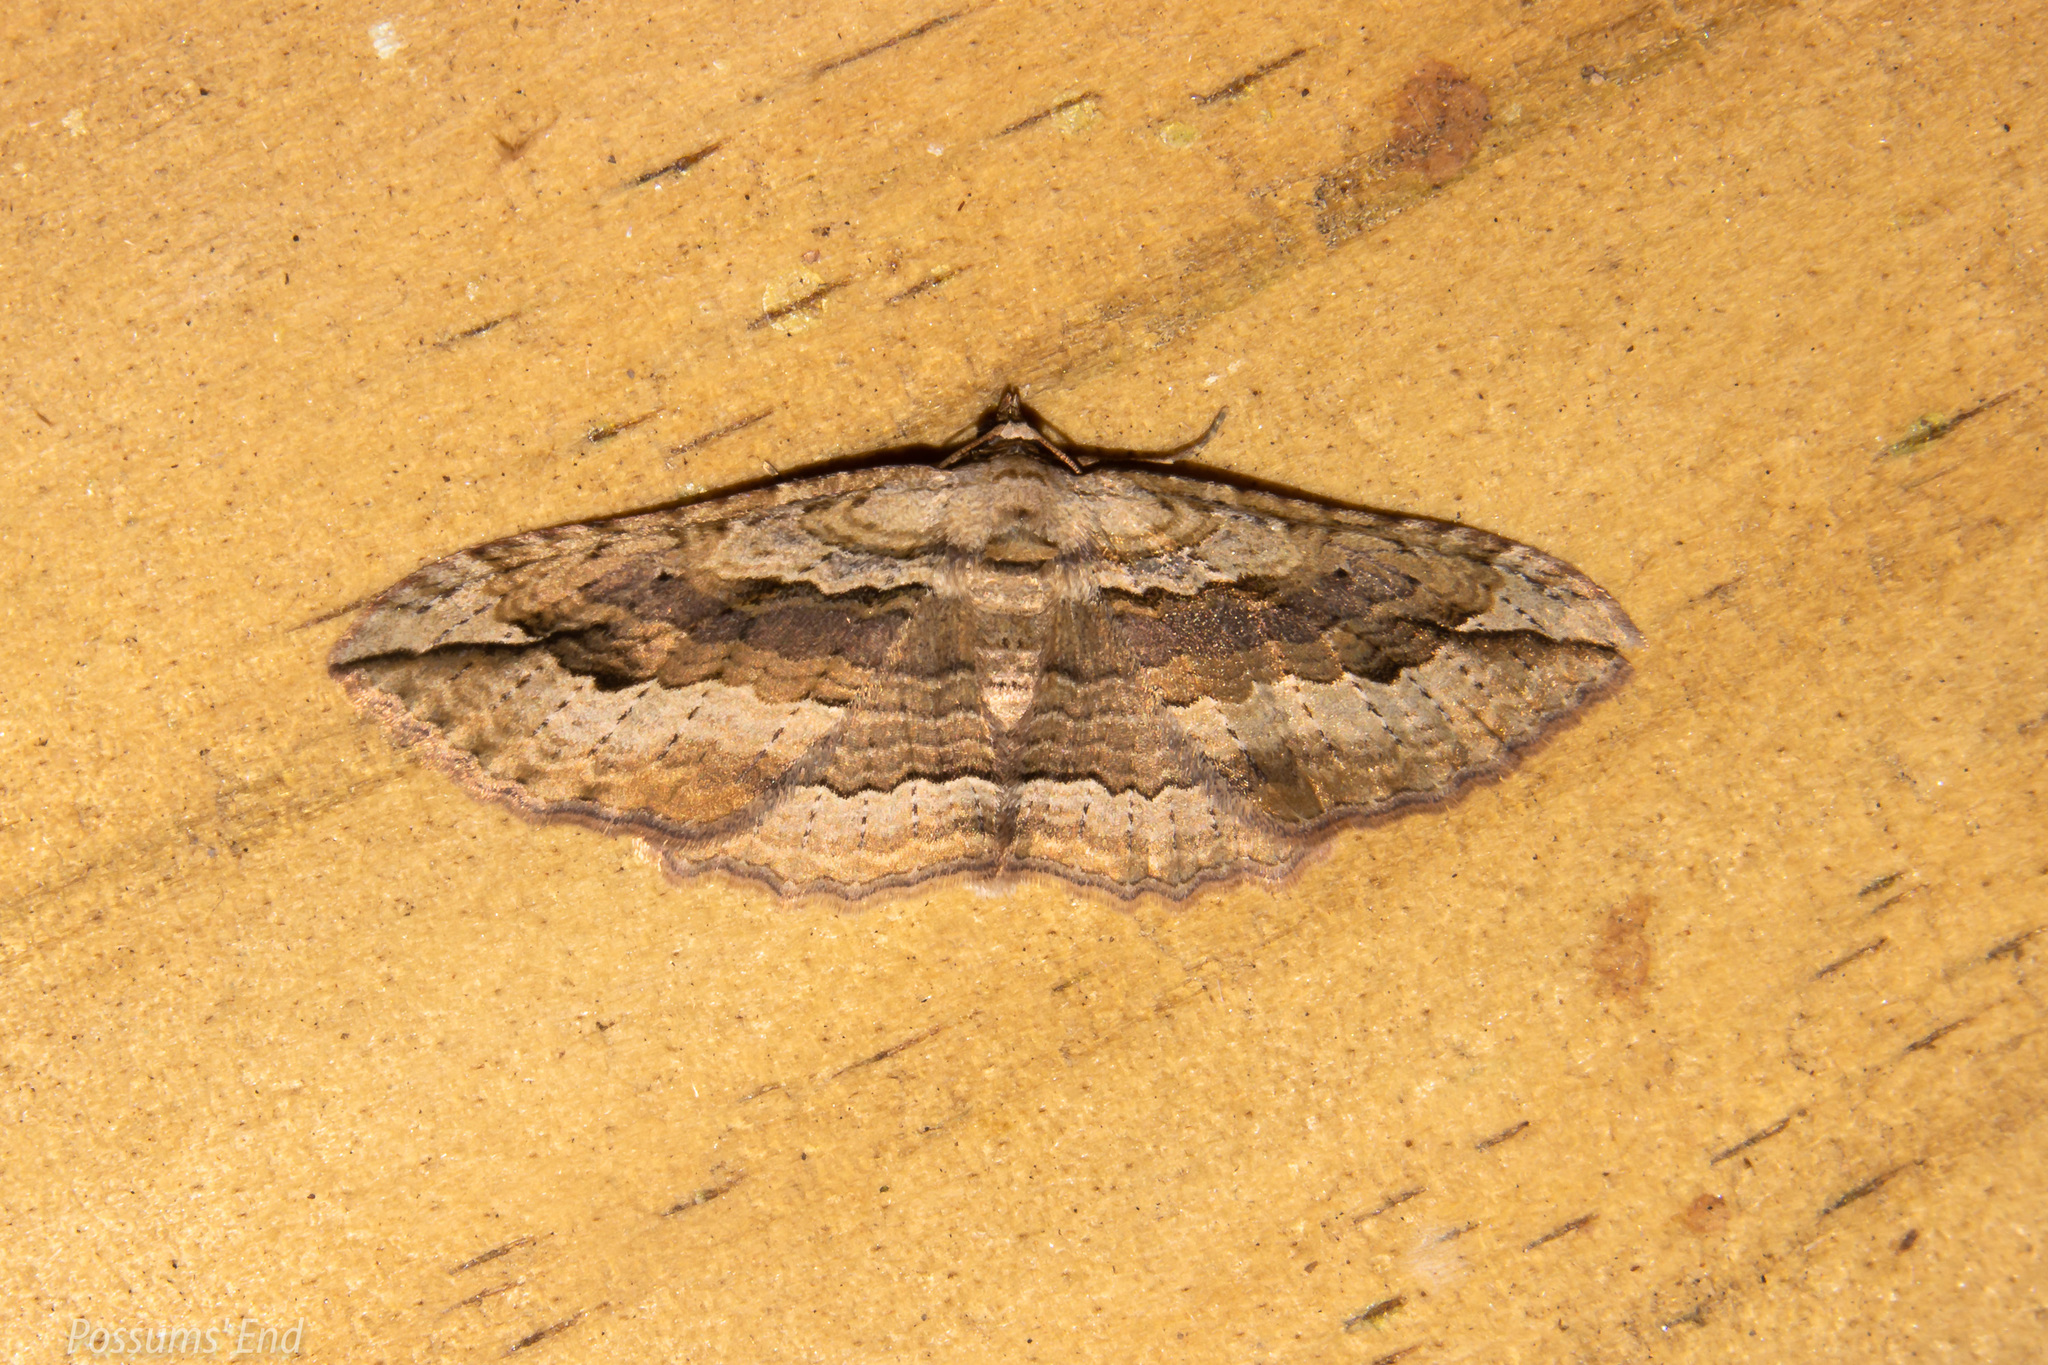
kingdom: Animalia
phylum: Arthropoda
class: Insecta
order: Lepidoptera
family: Geometridae
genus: Austrocidaria
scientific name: Austrocidaria gobiata
